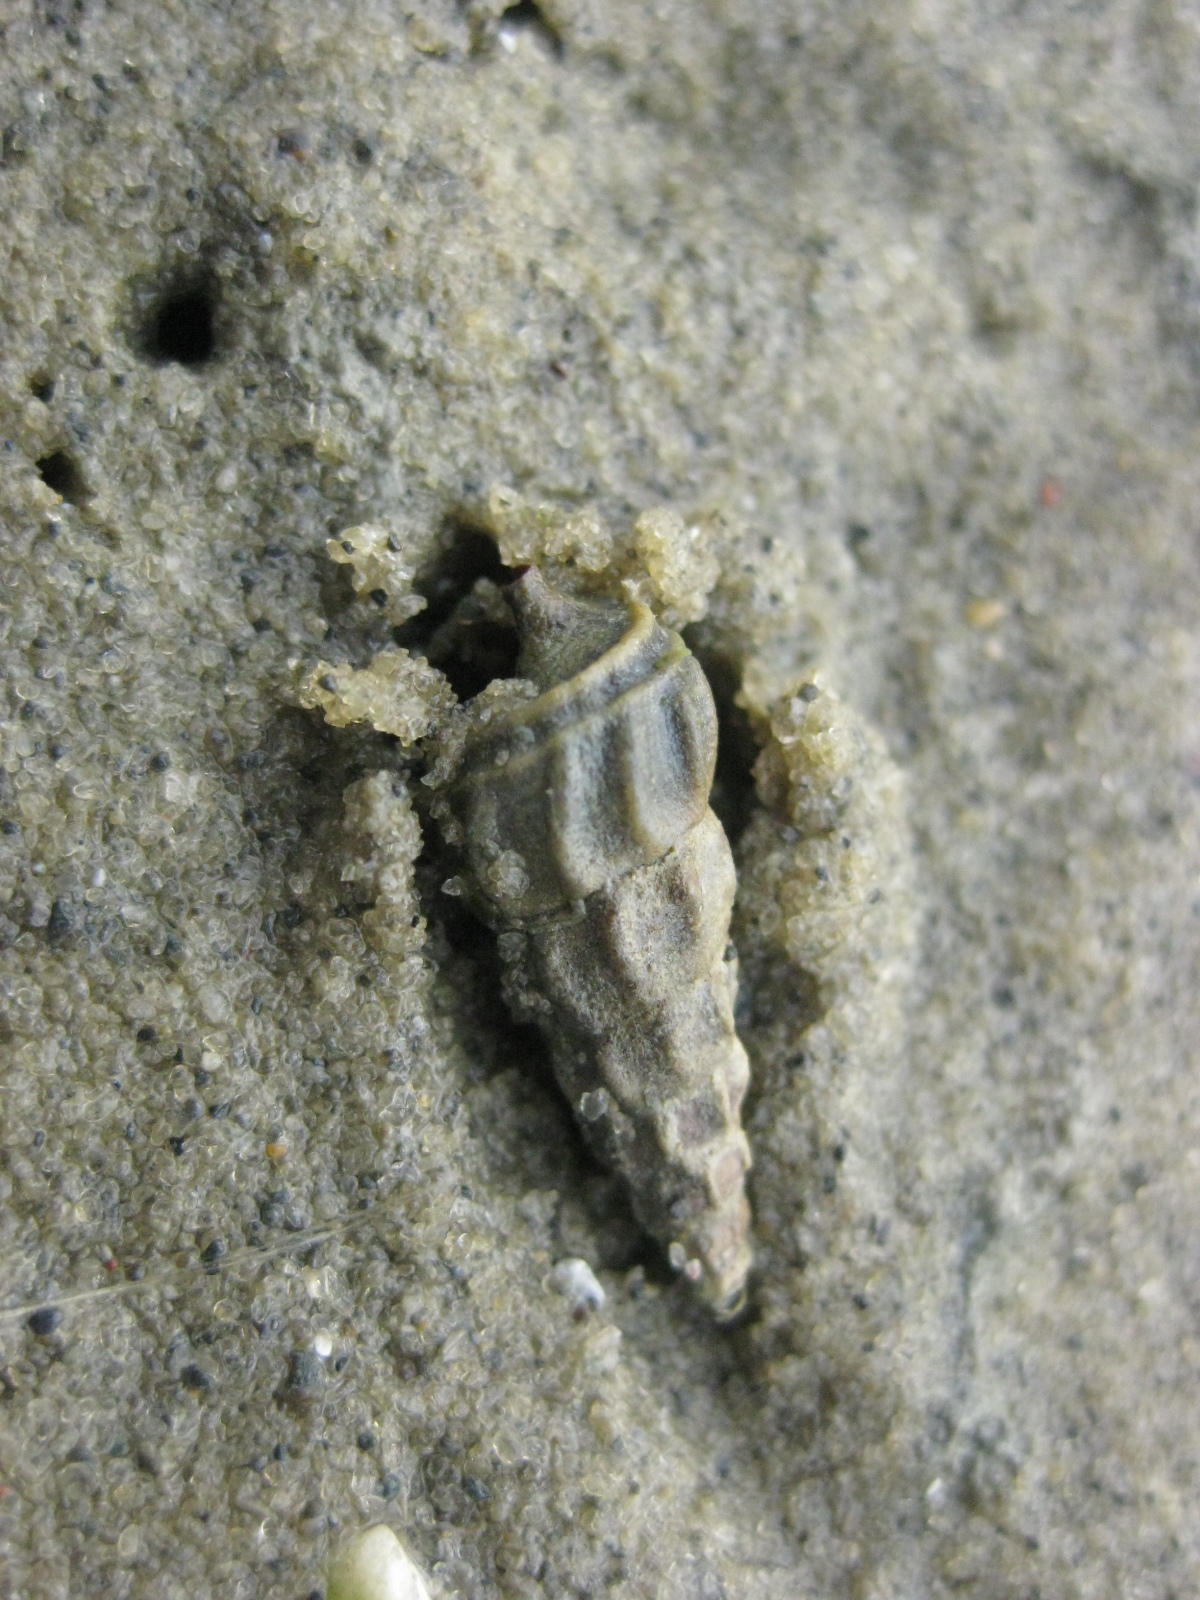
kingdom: Animalia
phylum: Mollusca
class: Gastropoda
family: Batillariidae
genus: Zeacumantus
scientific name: Zeacumantus lutulentus
